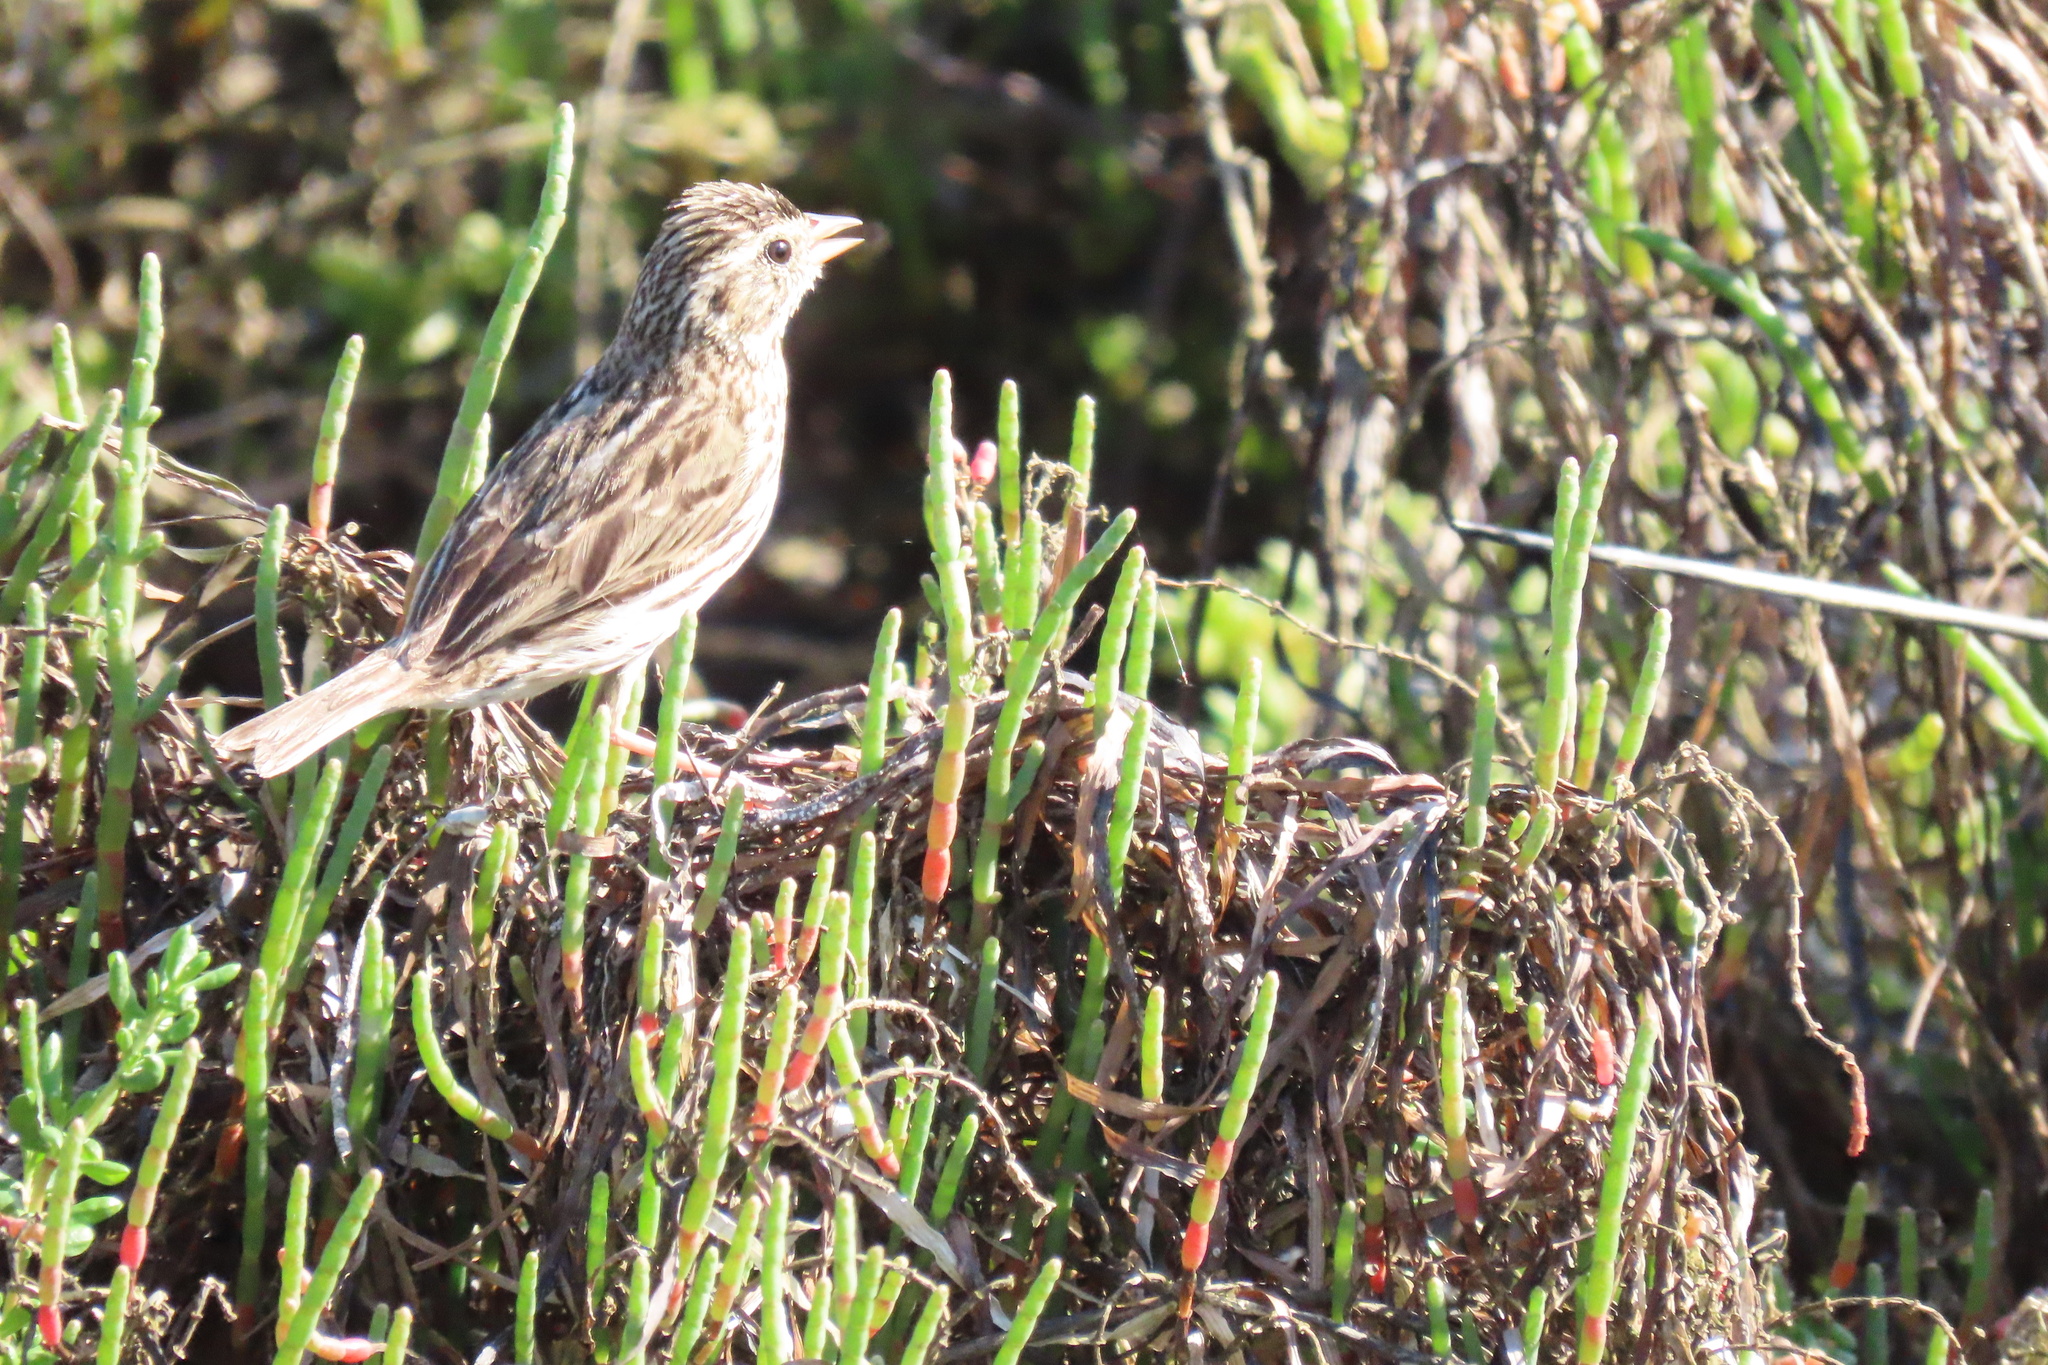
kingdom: Animalia
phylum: Chordata
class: Aves
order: Passeriformes
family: Passerellidae
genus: Passerculus
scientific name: Passerculus sandwichensis
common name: Savannah sparrow
